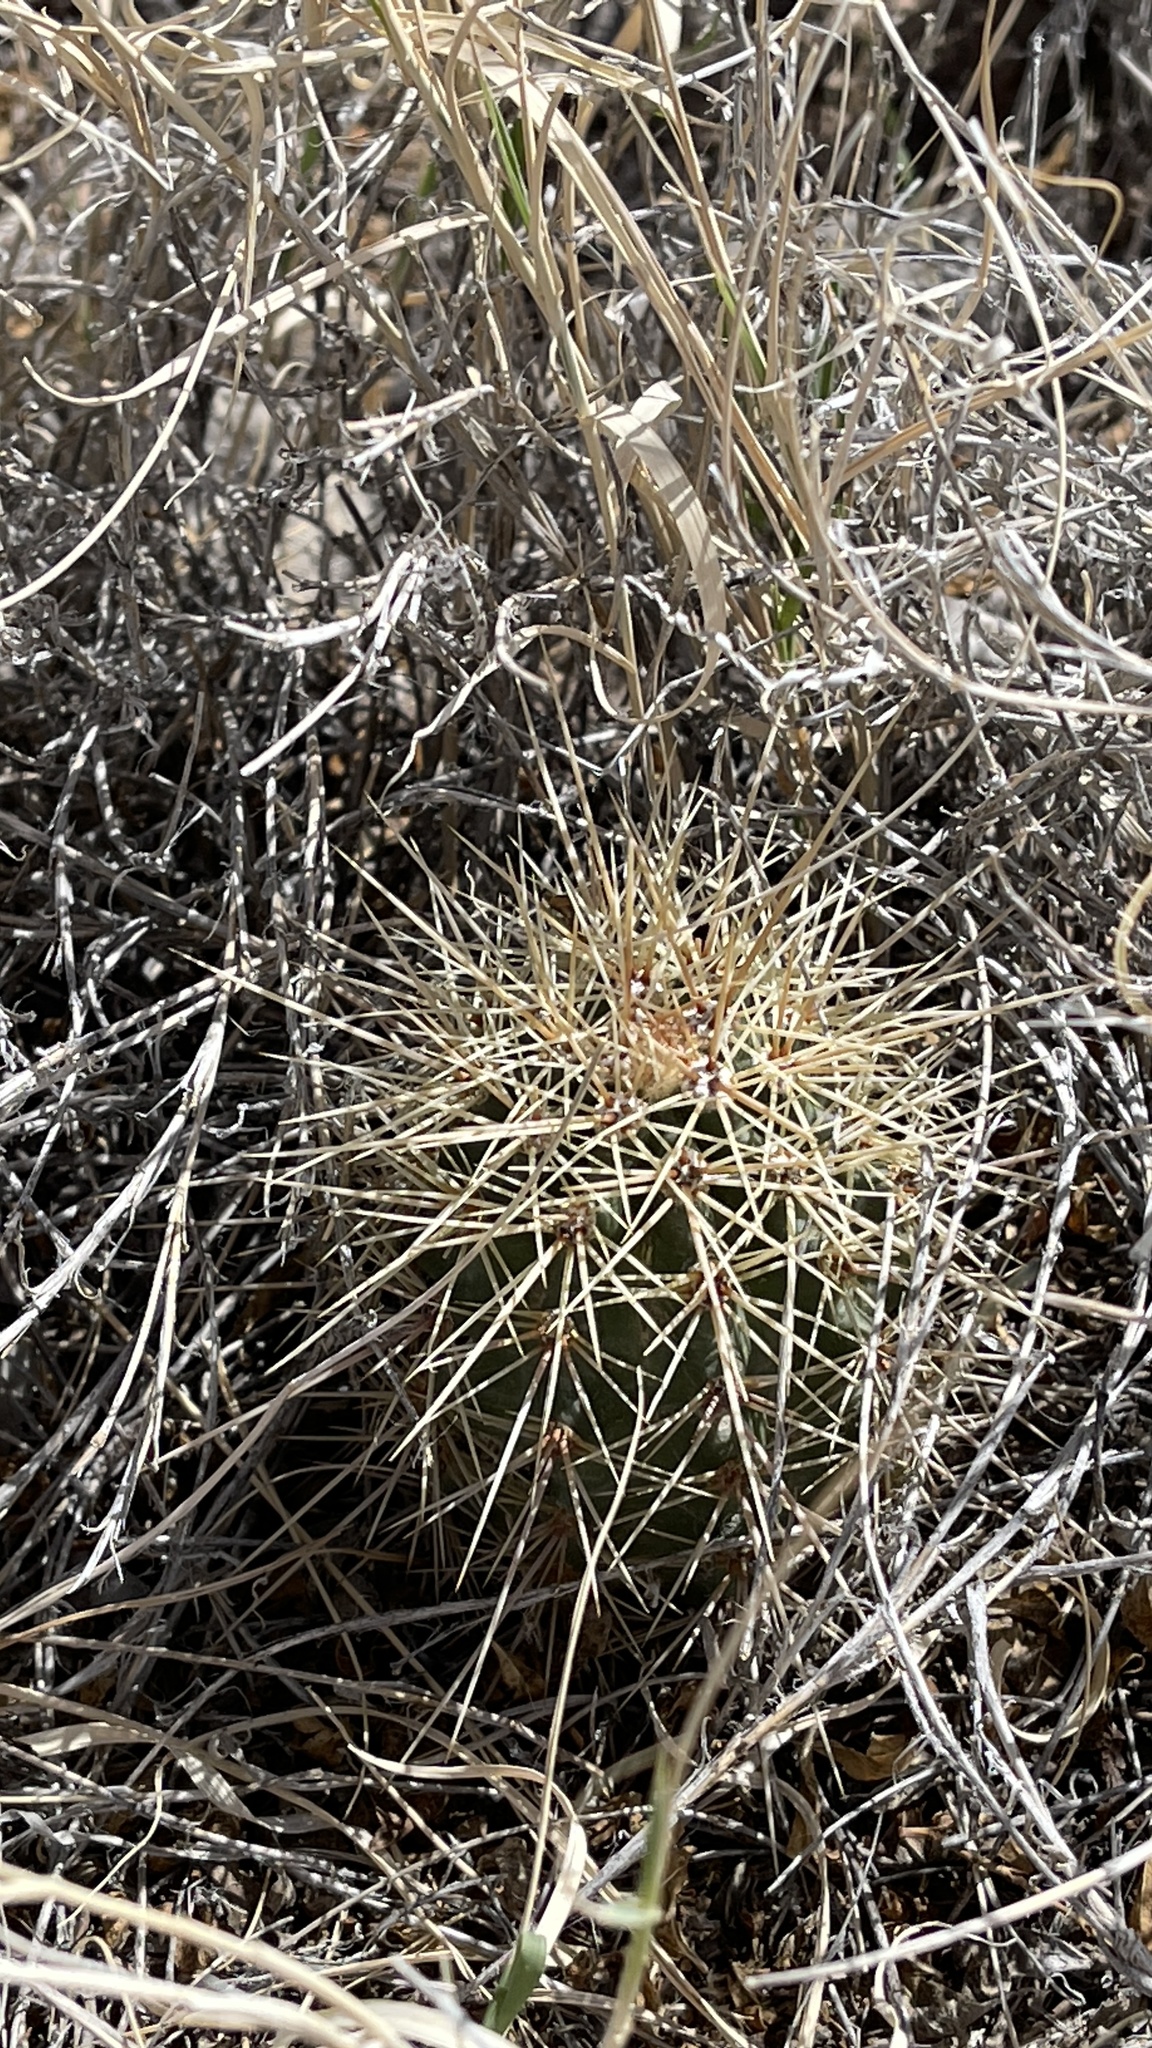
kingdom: Plantae
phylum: Tracheophyta
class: Magnoliopsida
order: Caryophyllales
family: Cactaceae
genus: Echinocereus
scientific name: Echinocereus coccineus
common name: Scarlet hedgehog cactus
